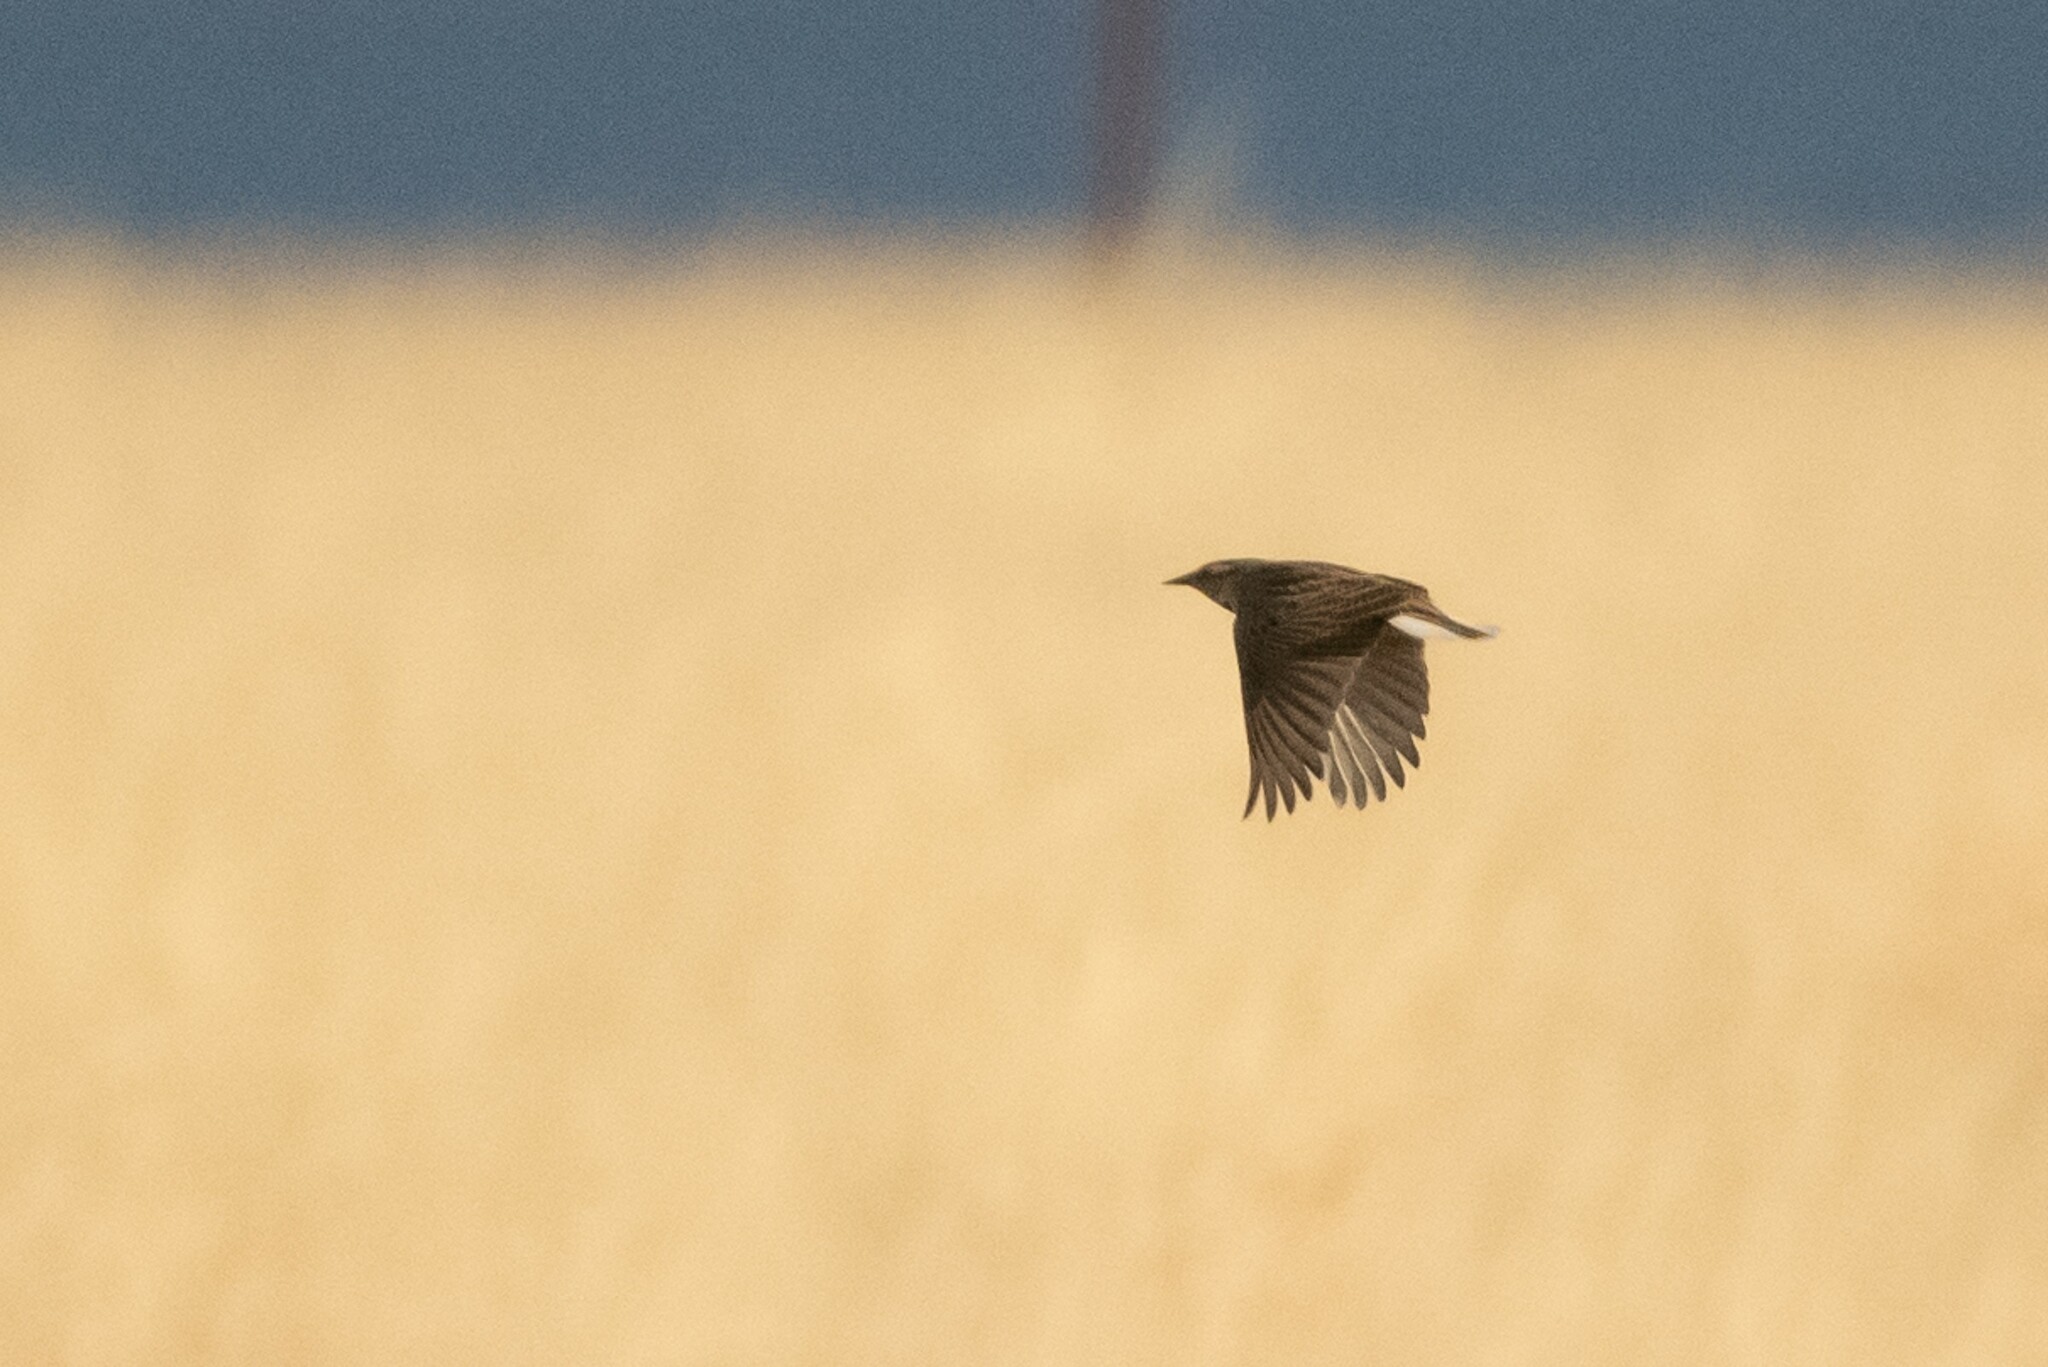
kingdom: Animalia
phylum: Chordata
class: Aves
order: Passeriformes
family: Icteridae
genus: Sturnella
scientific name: Sturnella lilianae
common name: Lilian's meadowlark
